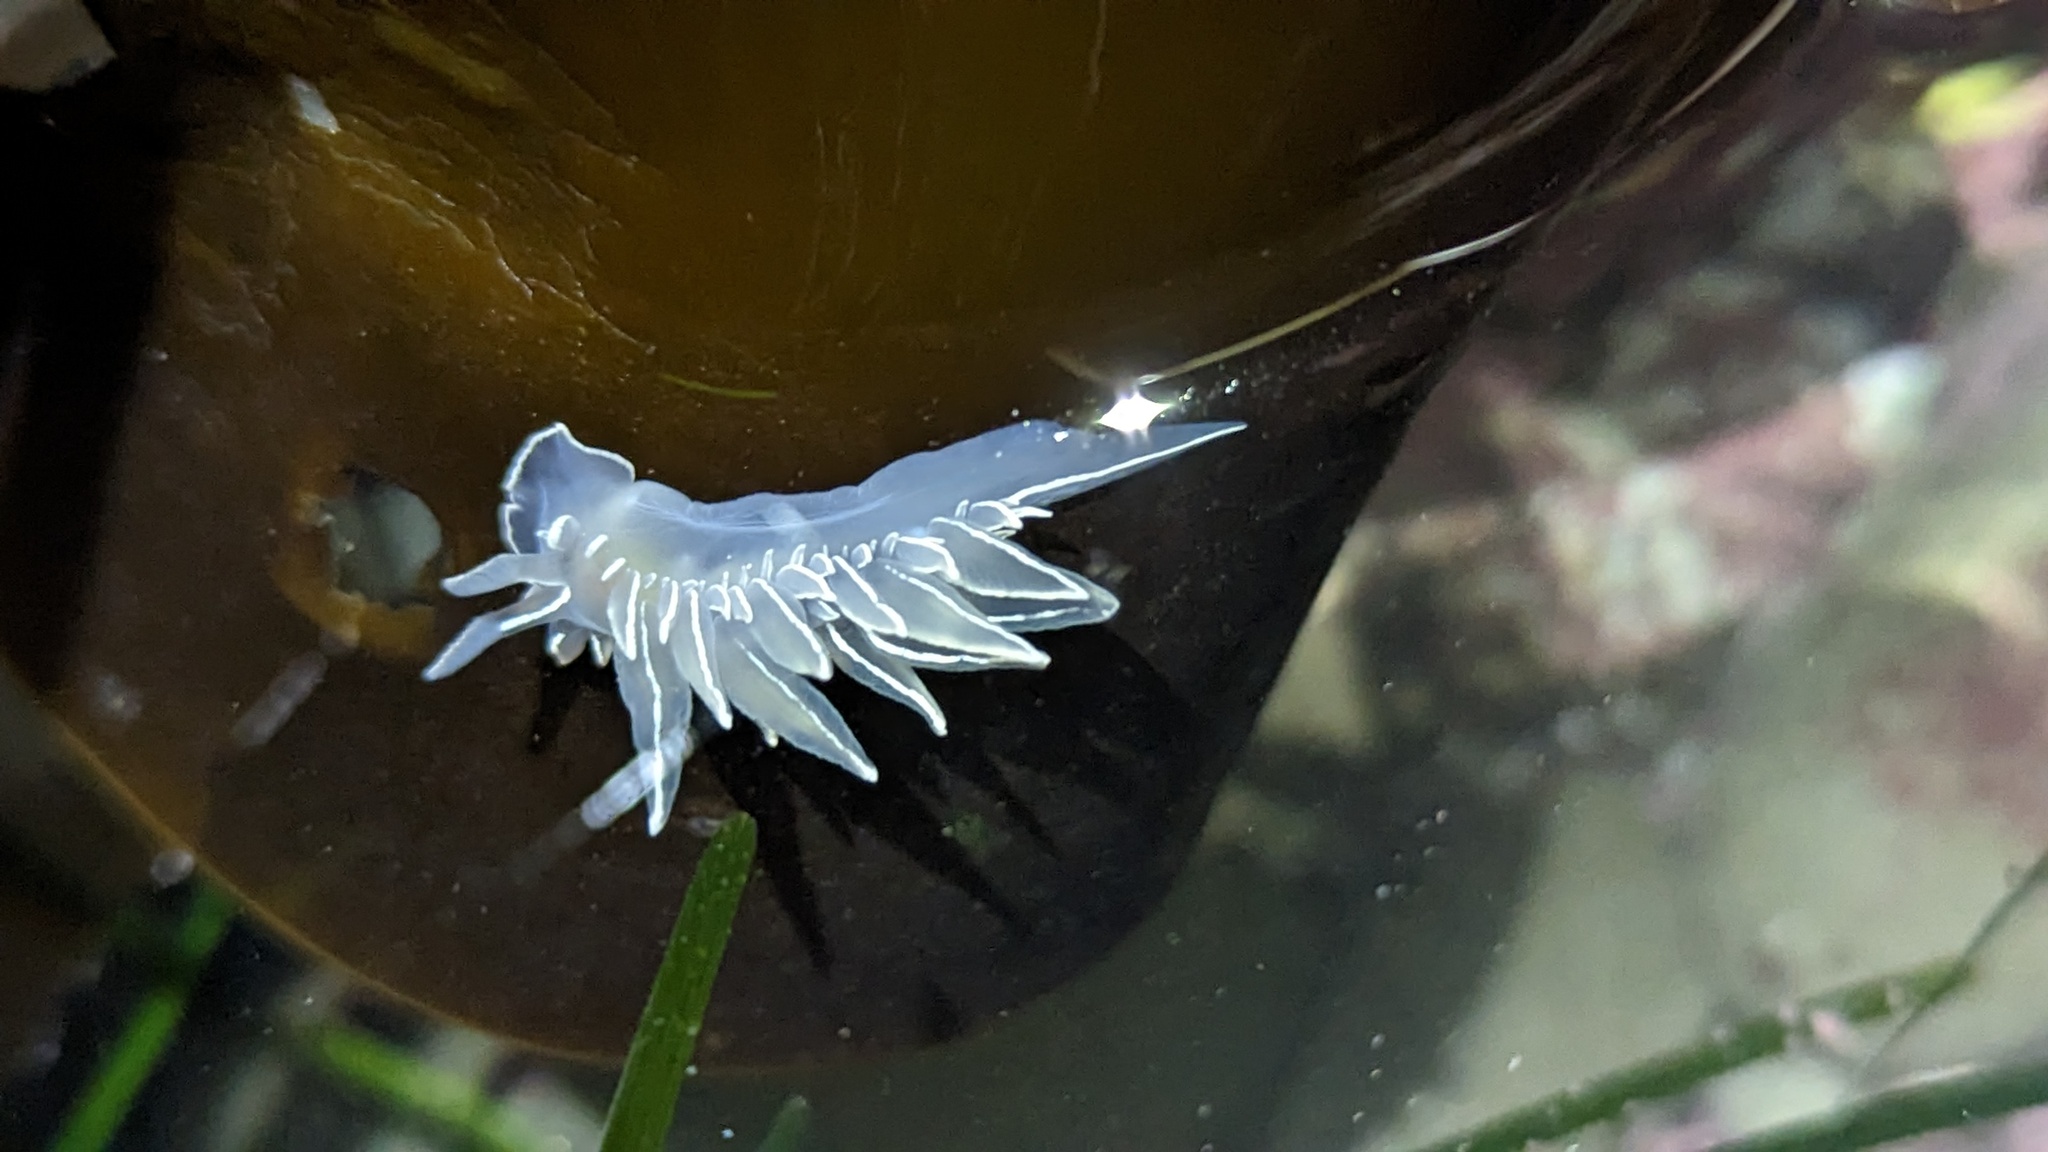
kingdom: Animalia
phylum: Mollusca
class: Gastropoda
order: Nudibranchia
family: Dironidae
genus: Dirona
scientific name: Dirona albolineata
